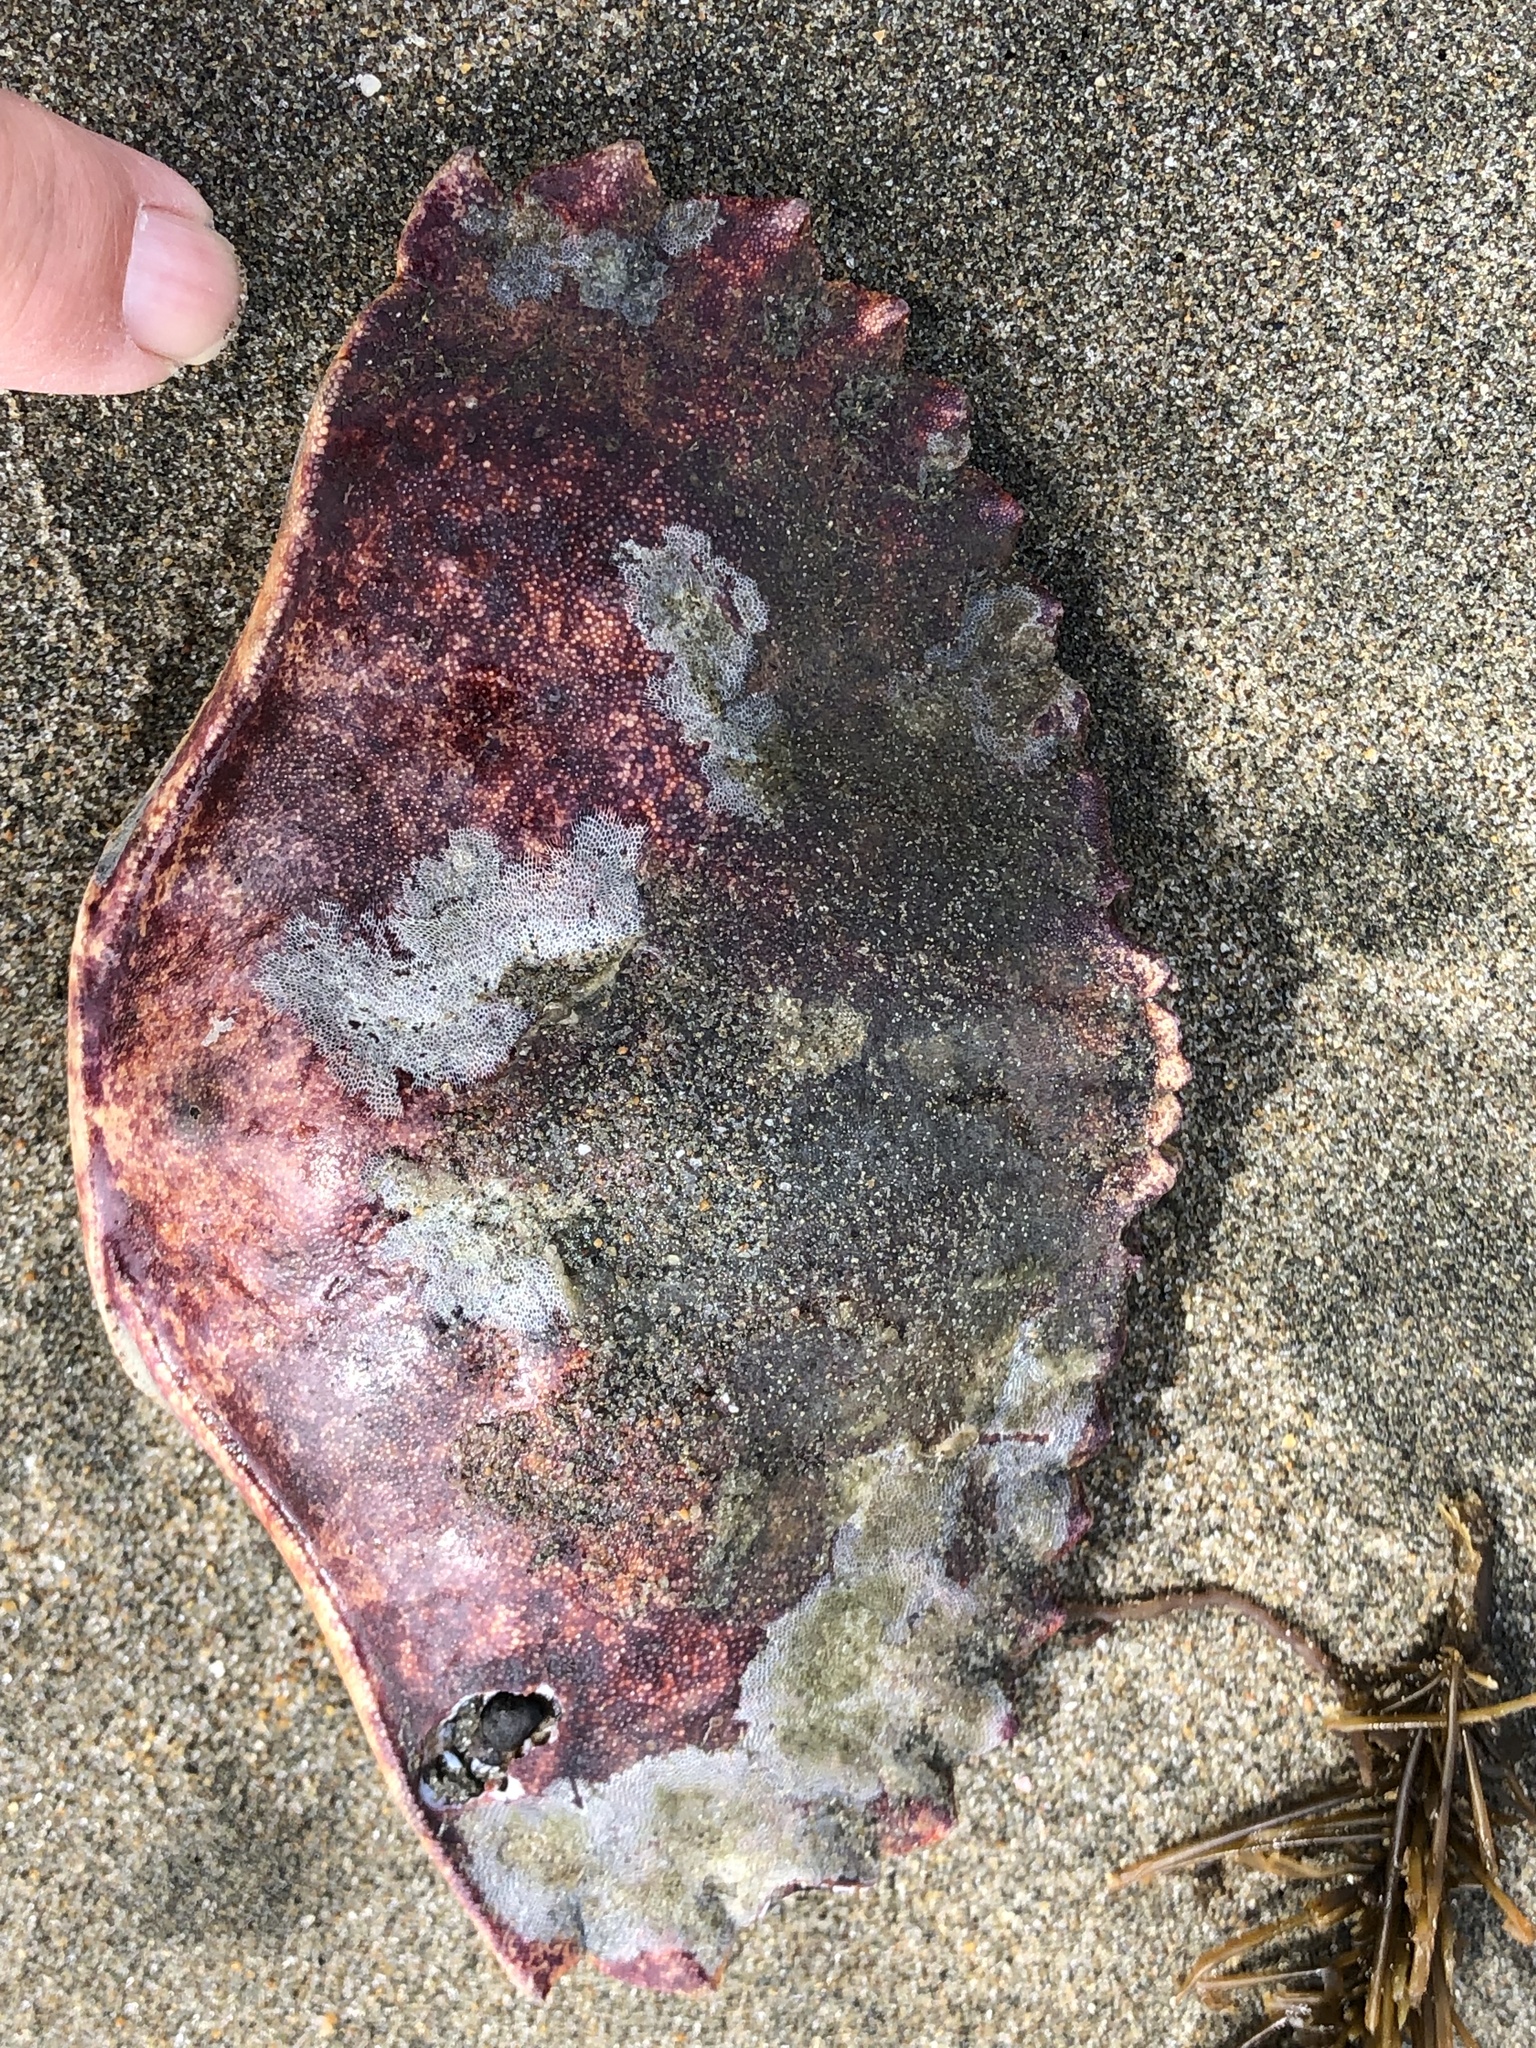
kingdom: Animalia
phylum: Arthropoda
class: Malacostraca
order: Decapoda
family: Cancridae
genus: Cancer
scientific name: Cancer productus
